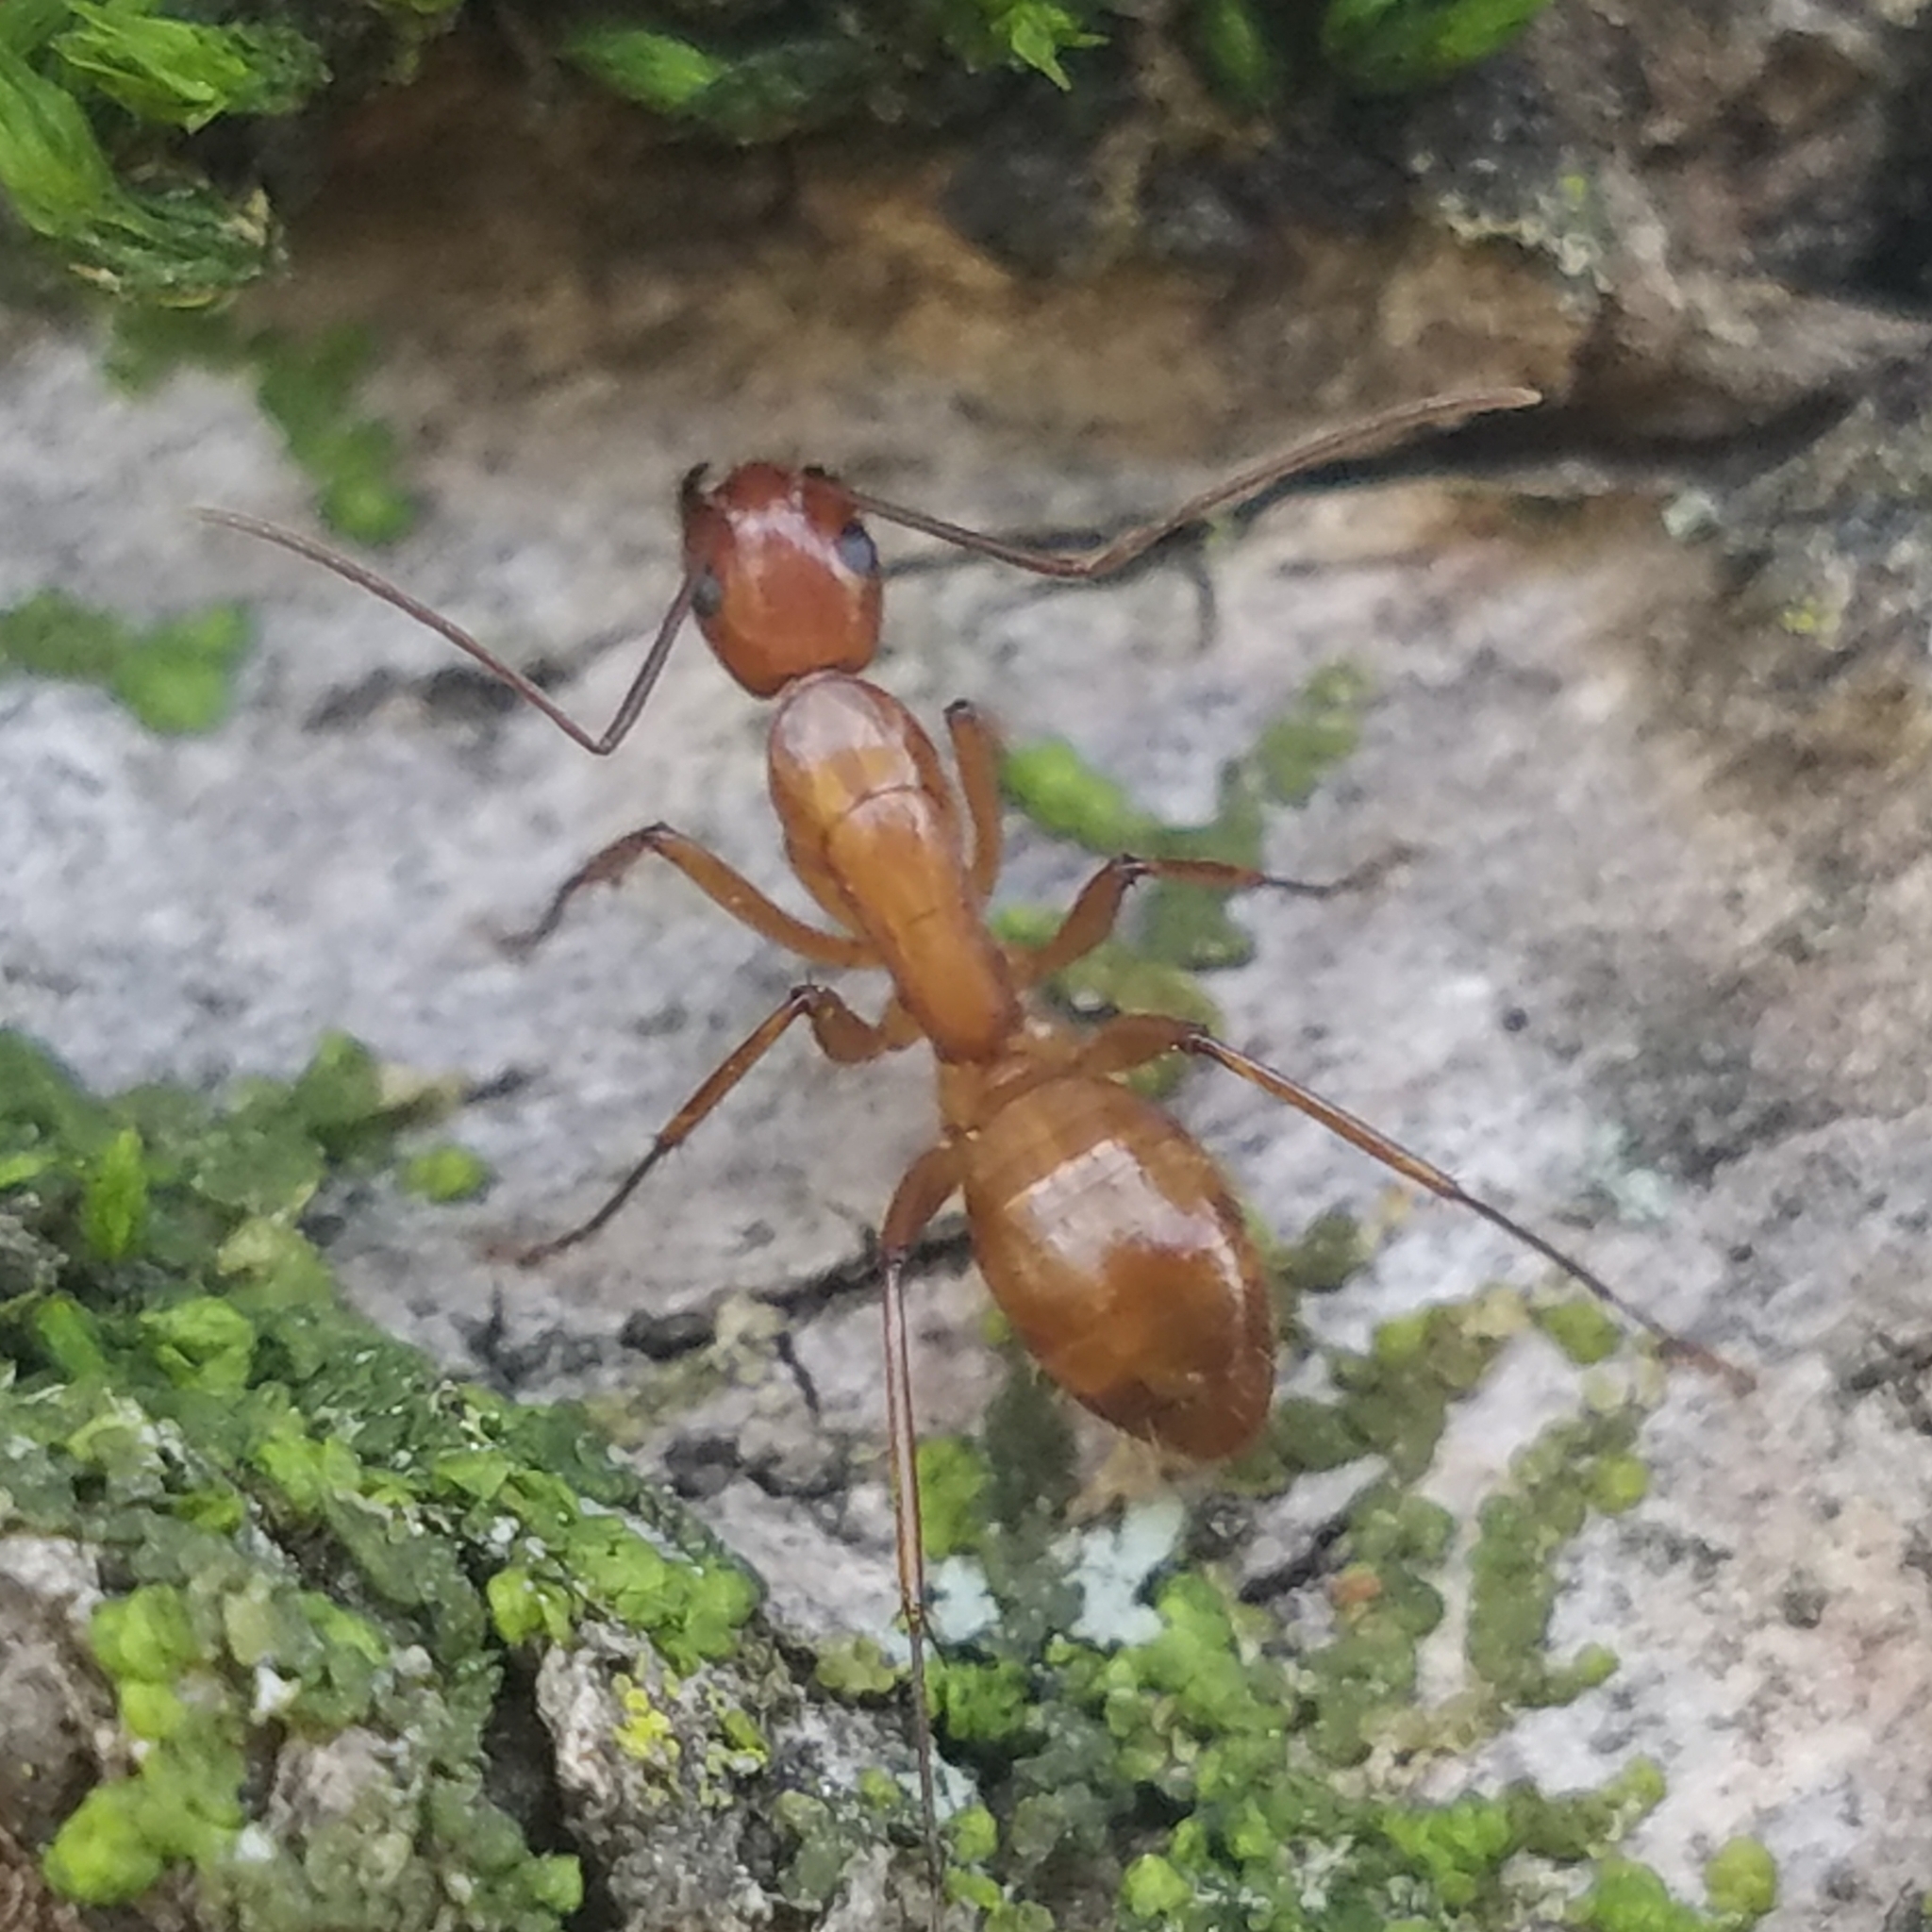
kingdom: Animalia
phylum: Arthropoda
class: Insecta
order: Hymenoptera
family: Formicidae
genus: Camponotus
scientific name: Camponotus castaneus
